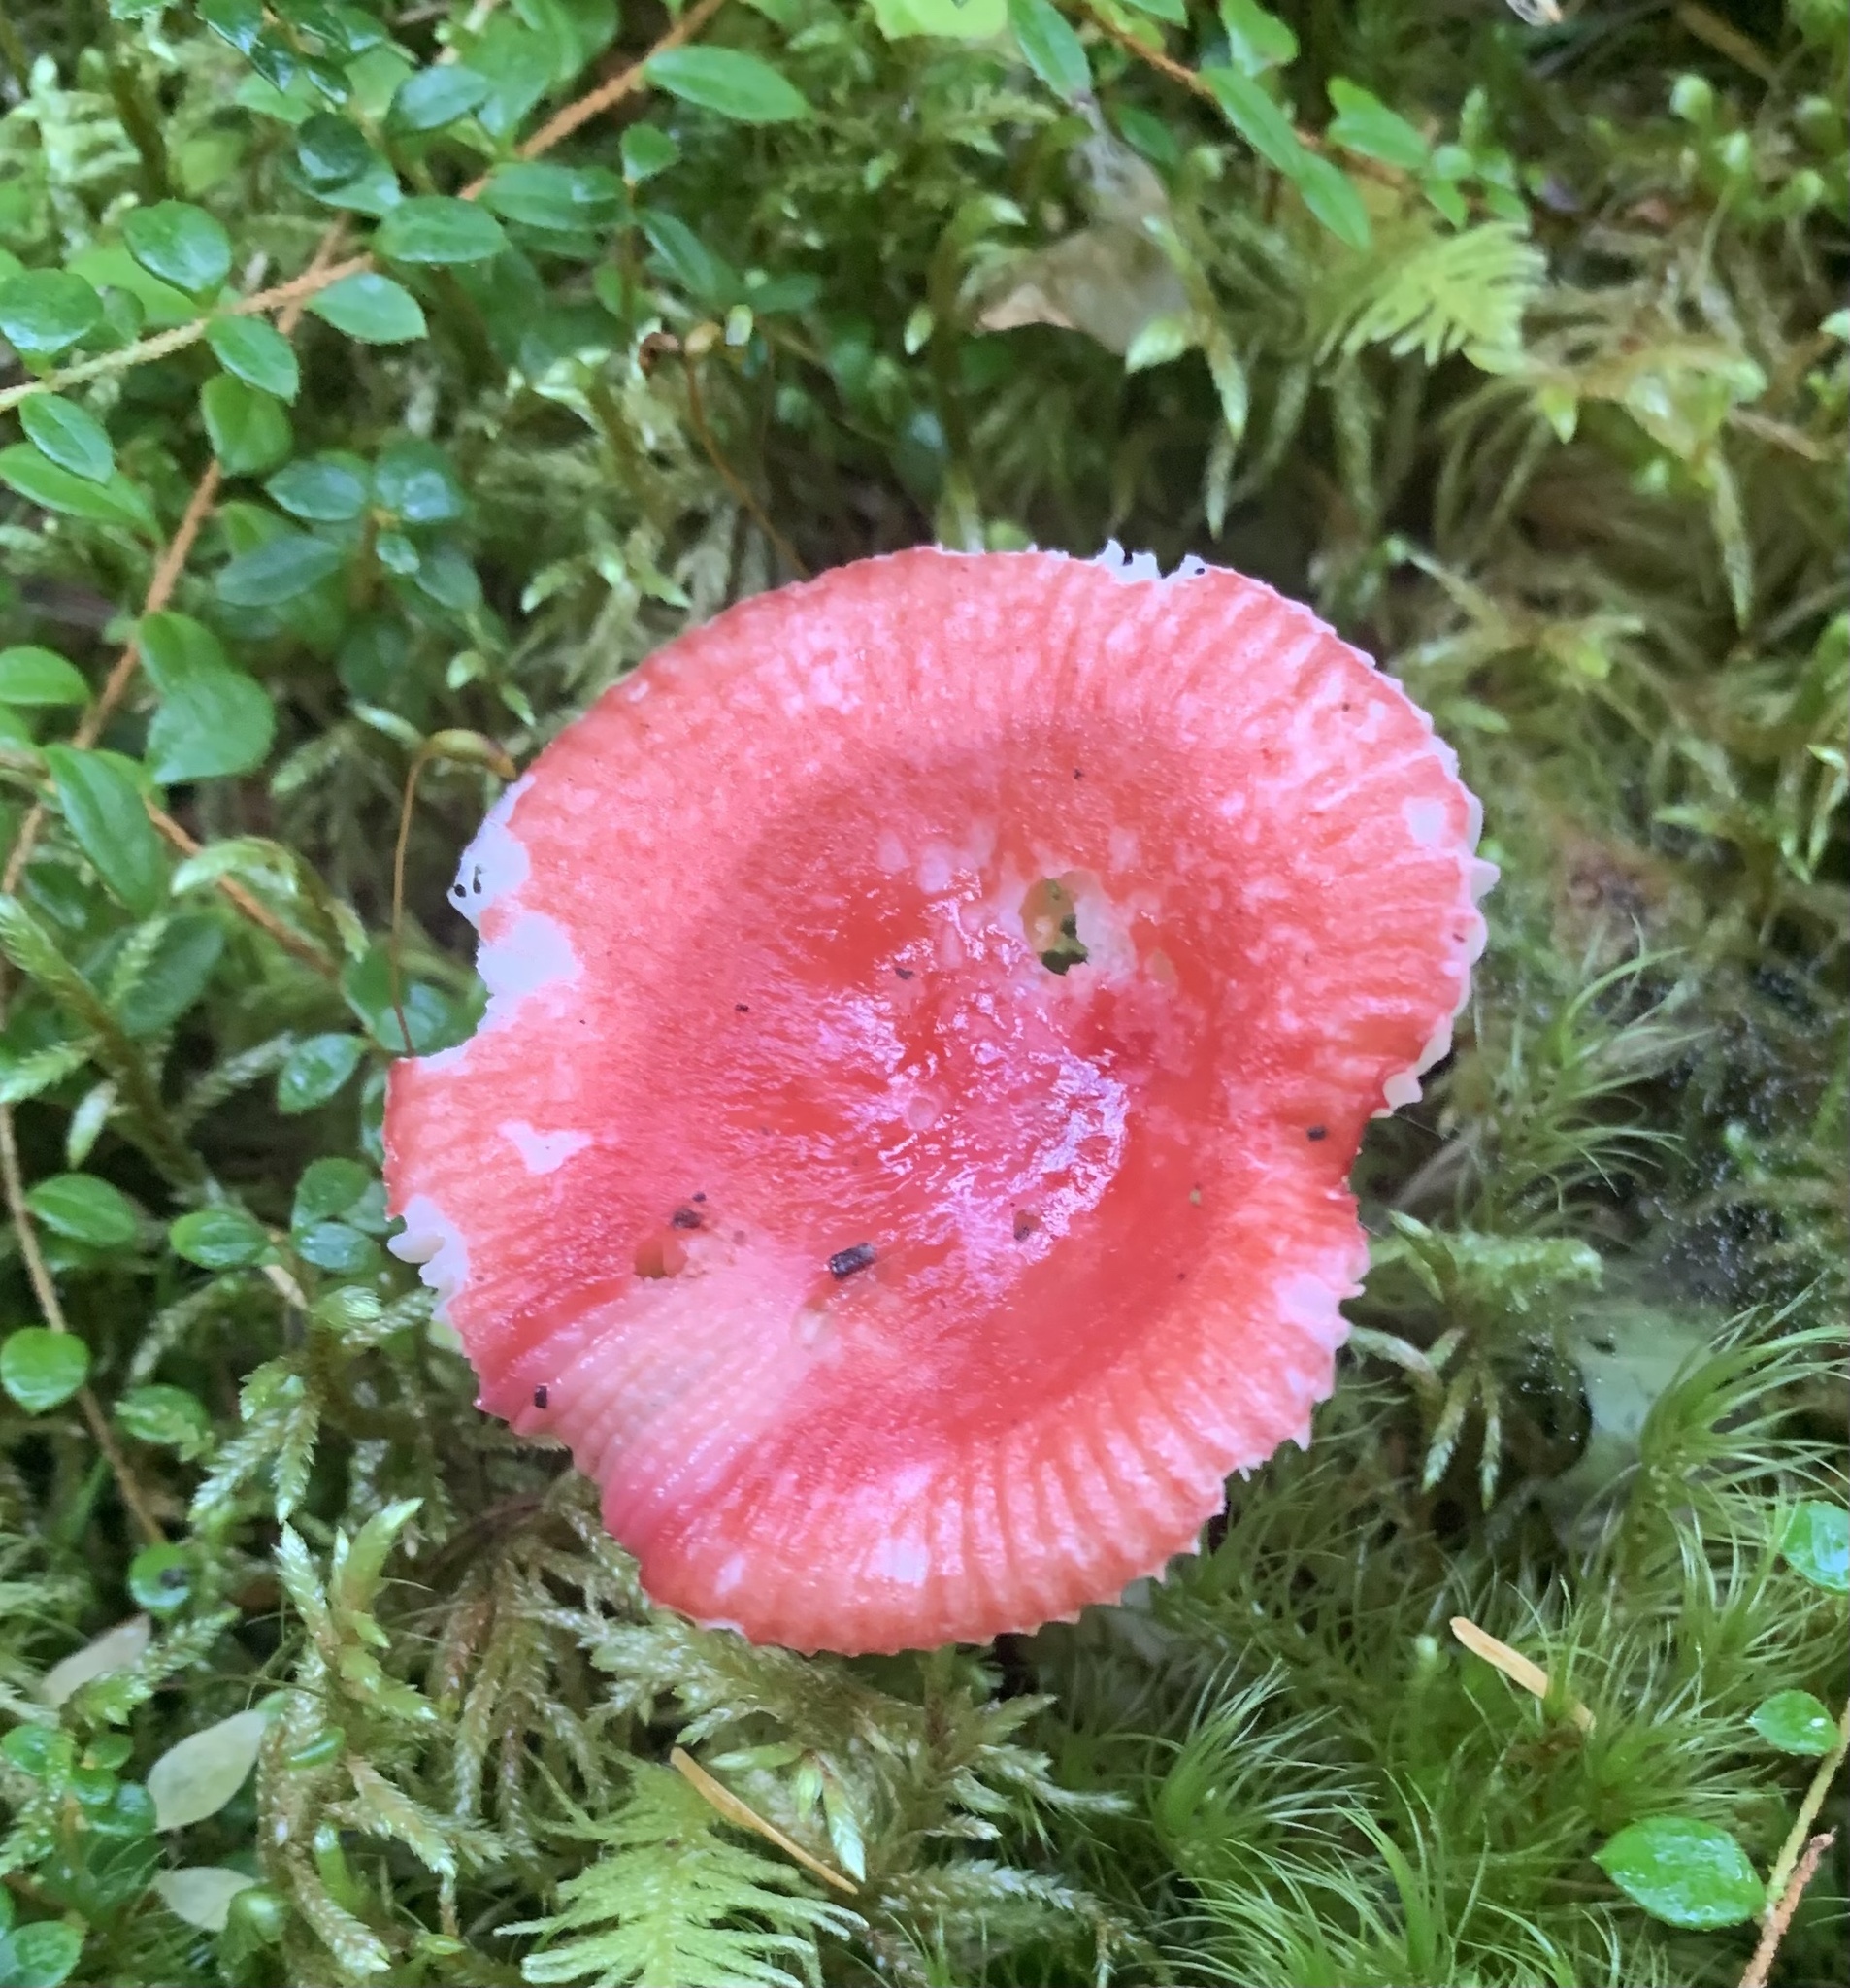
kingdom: Fungi
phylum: Basidiomycota
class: Agaricomycetes
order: Russulales
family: Russulaceae
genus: Russula
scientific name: Russula
